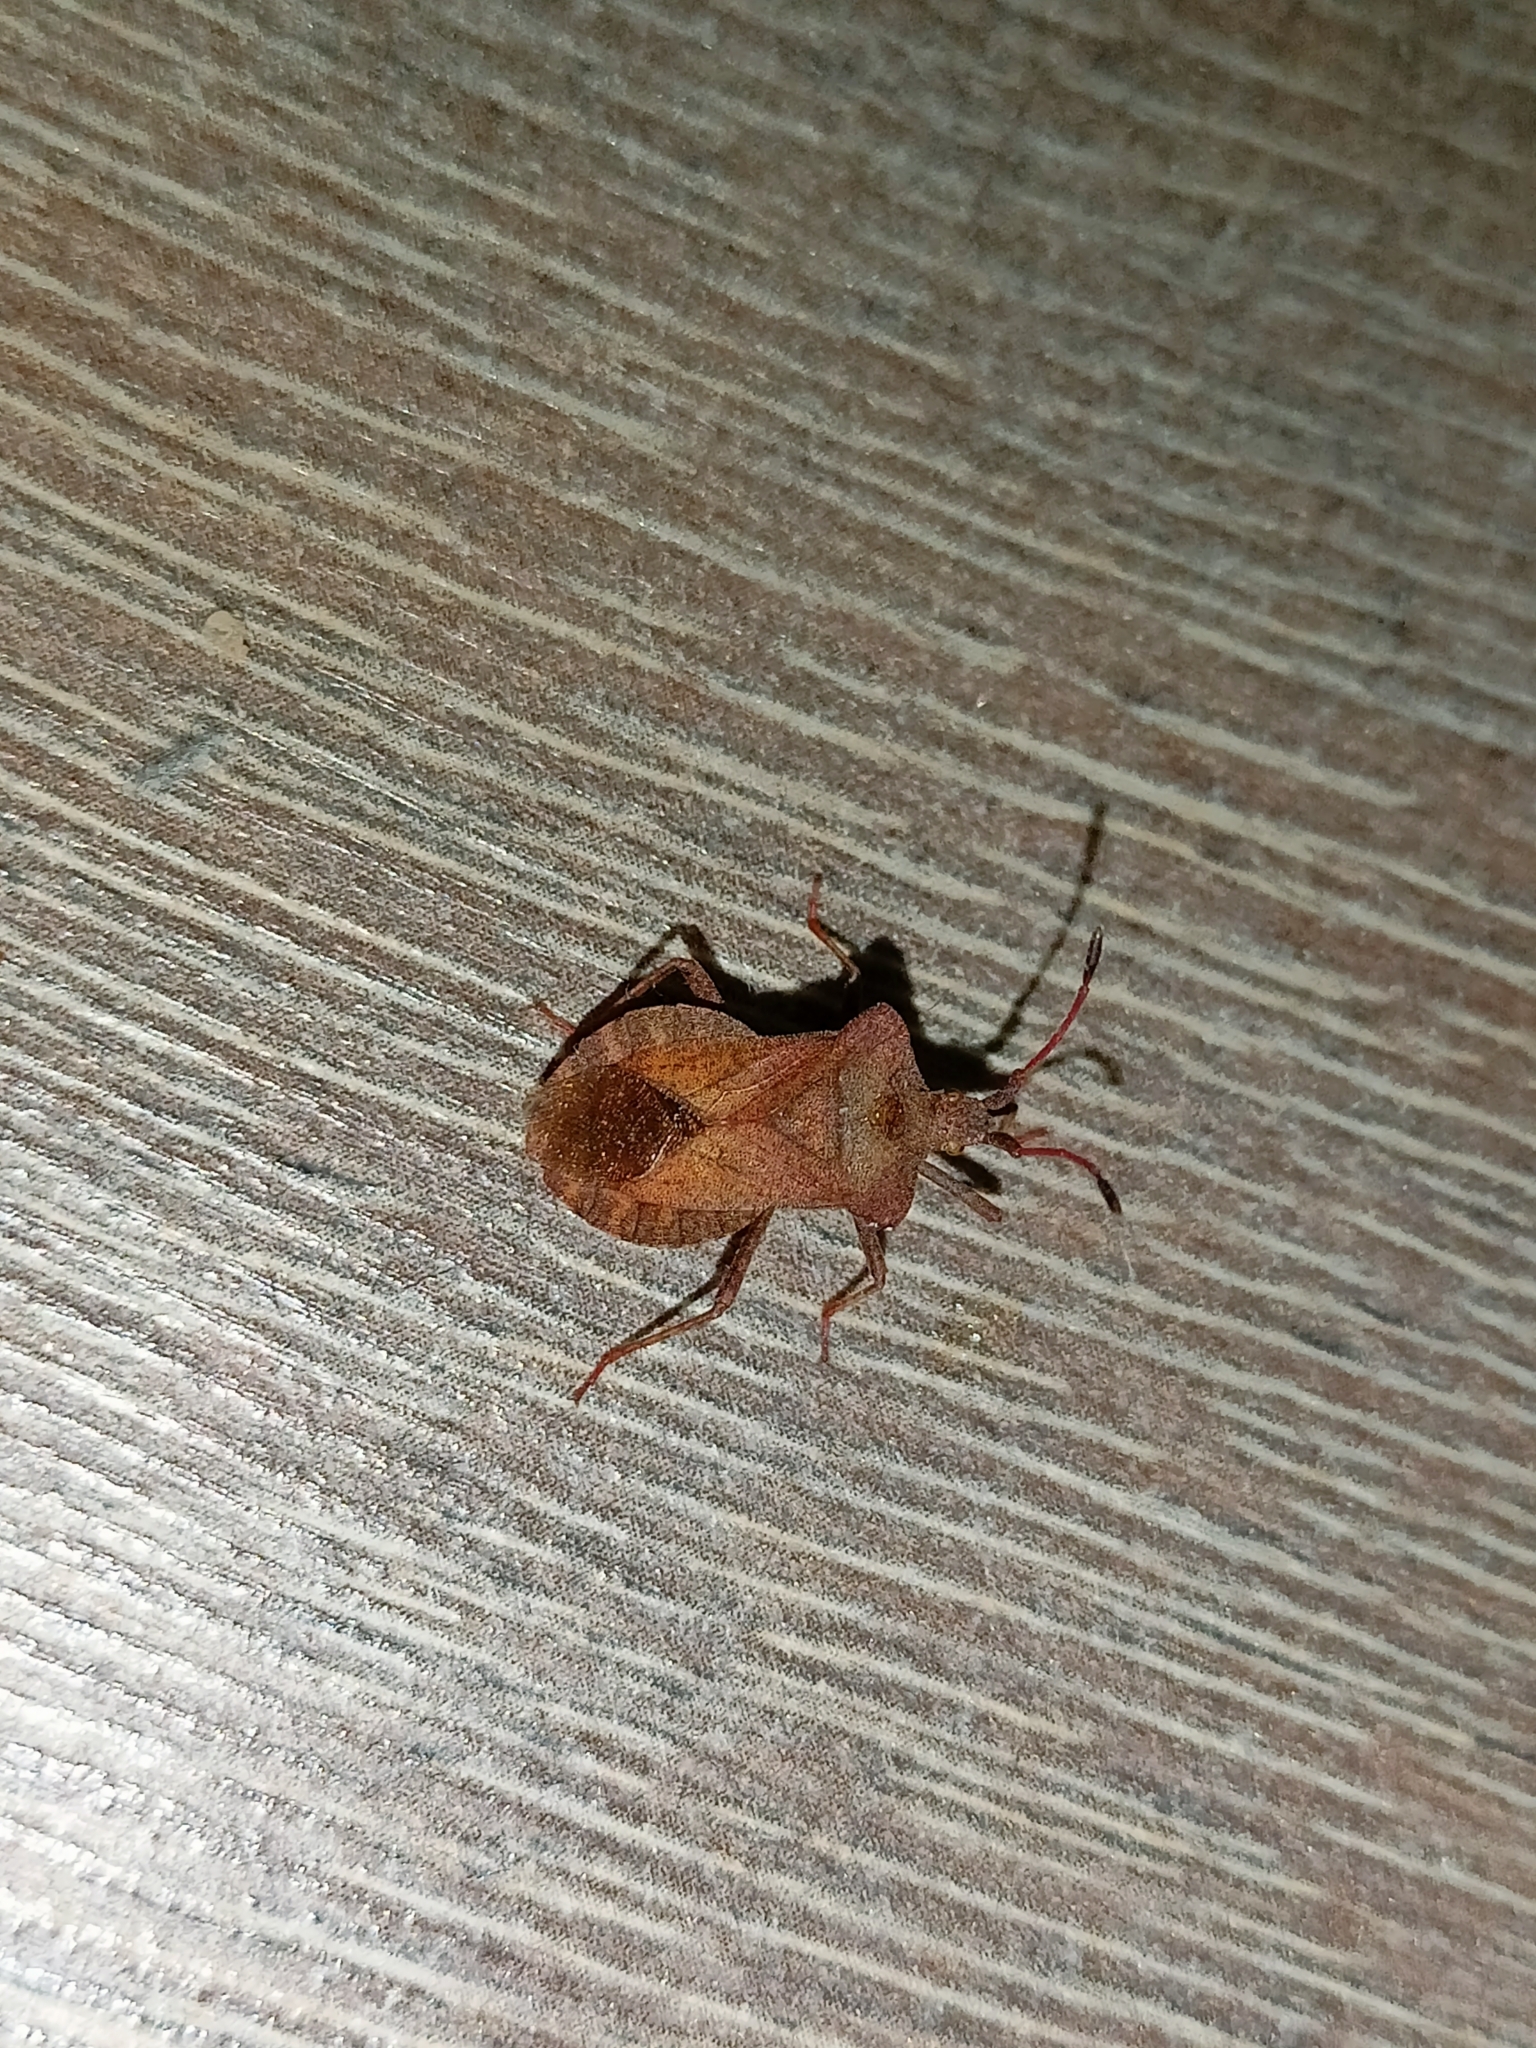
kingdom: Animalia
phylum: Arthropoda
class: Insecta
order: Hemiptera
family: Coreidae
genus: Coreus
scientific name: Coreus marginatus
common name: Dock bug
